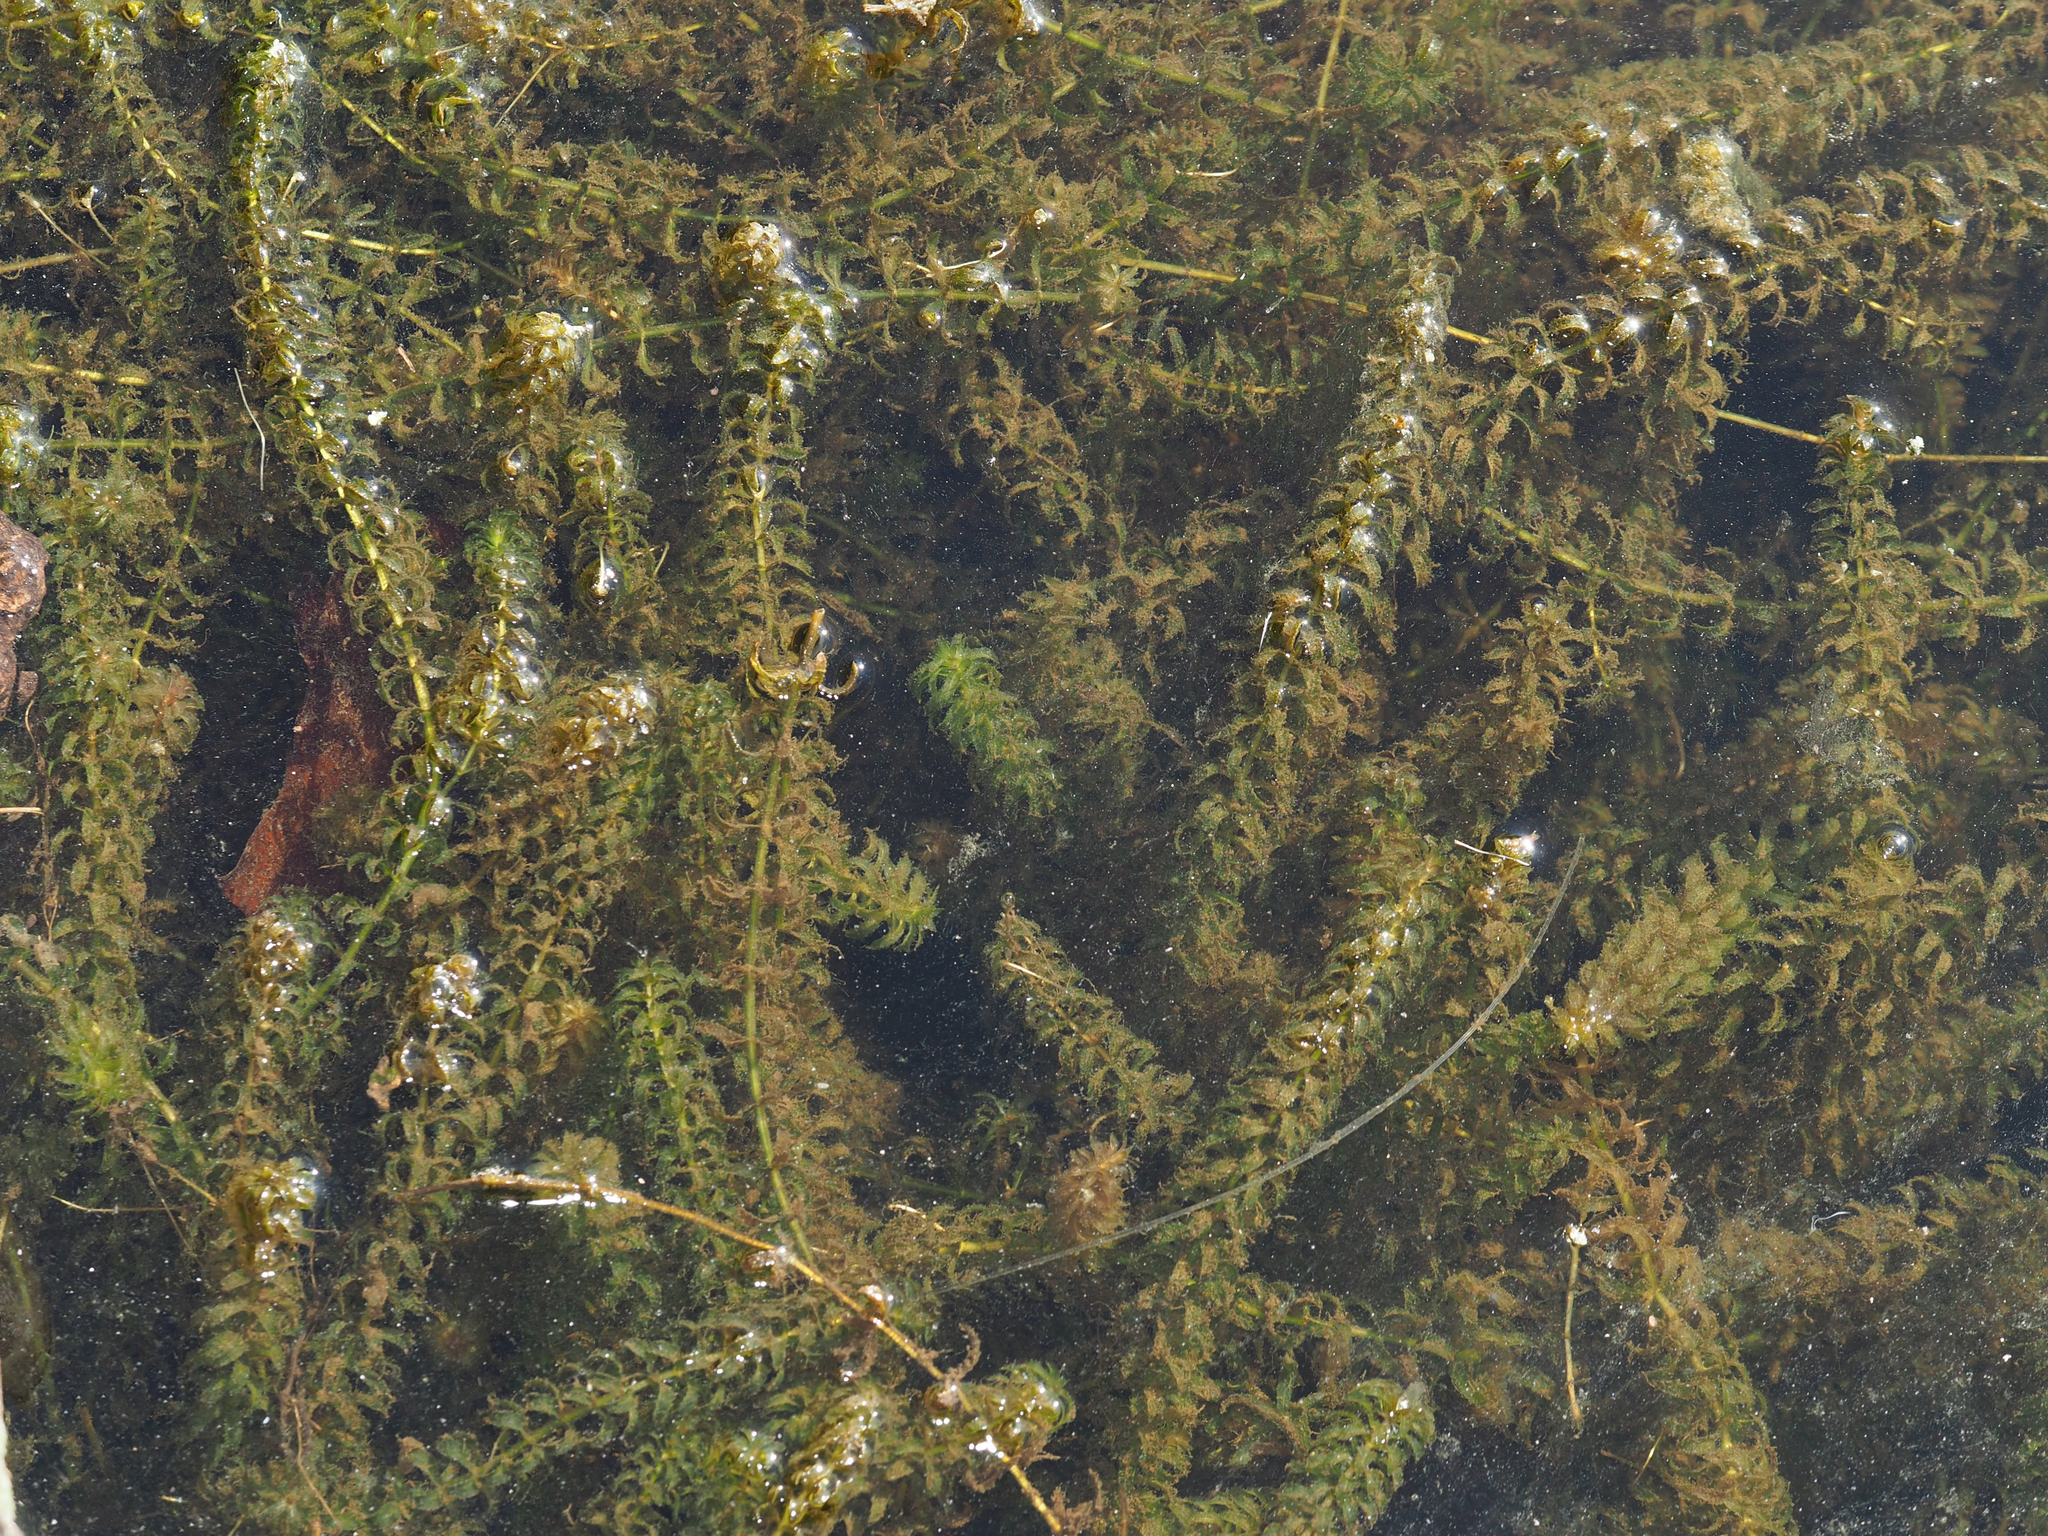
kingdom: Plantae
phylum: Tracheophyta
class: Liliopsida
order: Alismatales
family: Hydrocharitaceae
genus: Hydrilla
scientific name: Hydrilla verticillata
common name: Florida-elodea
